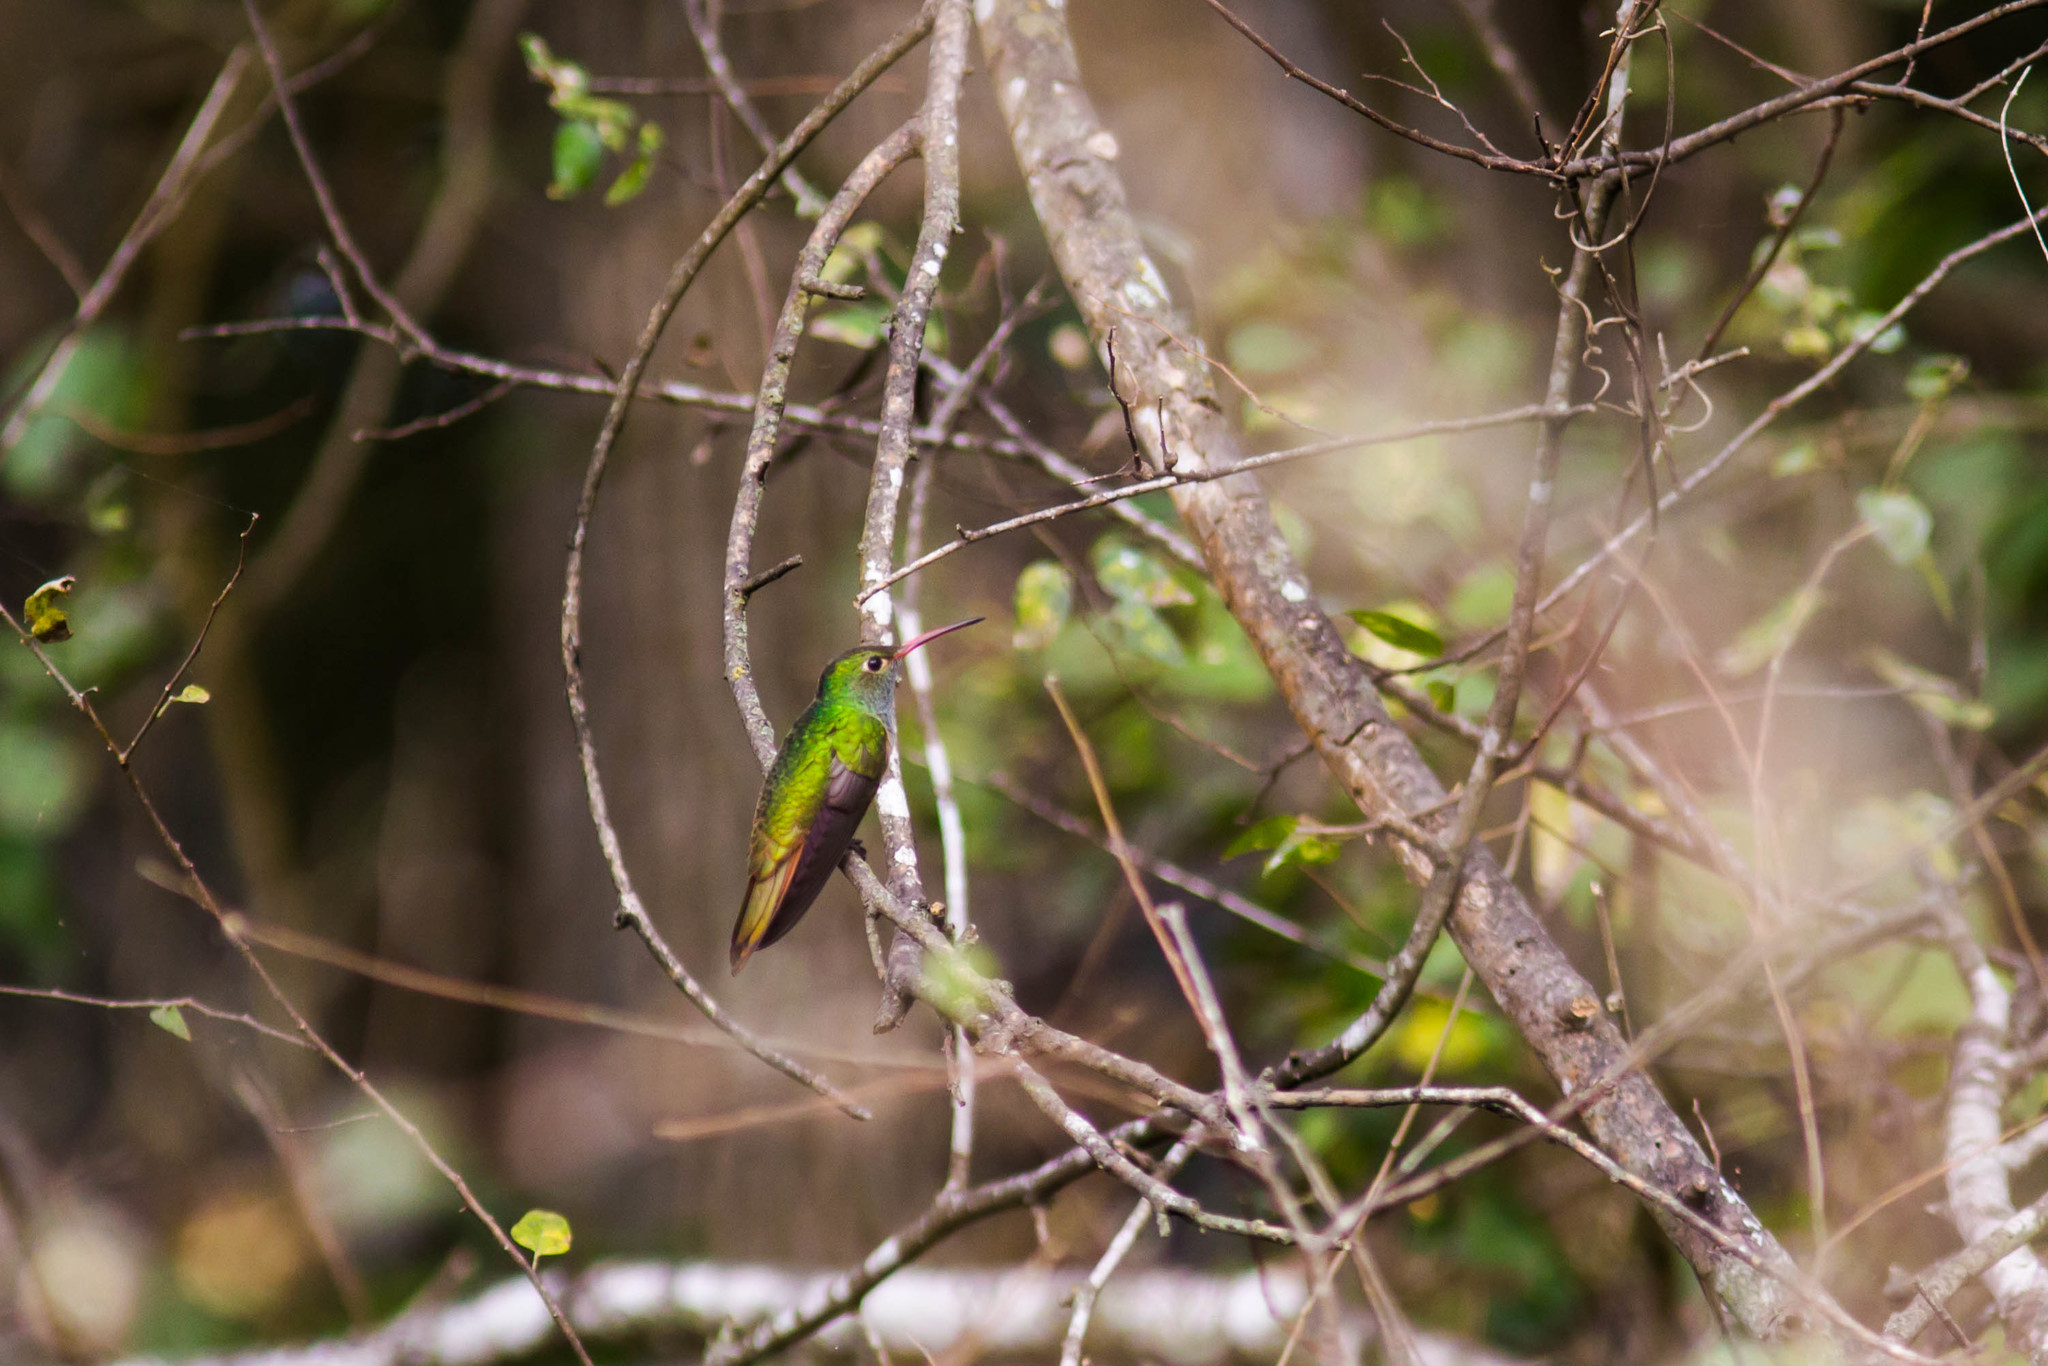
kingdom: Animalia
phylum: Chordata
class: Aves
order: Apodiformes
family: Trochilidae
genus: Amazilia
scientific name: Amazilia yucatanensis
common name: Buff-bellied hummingbird
